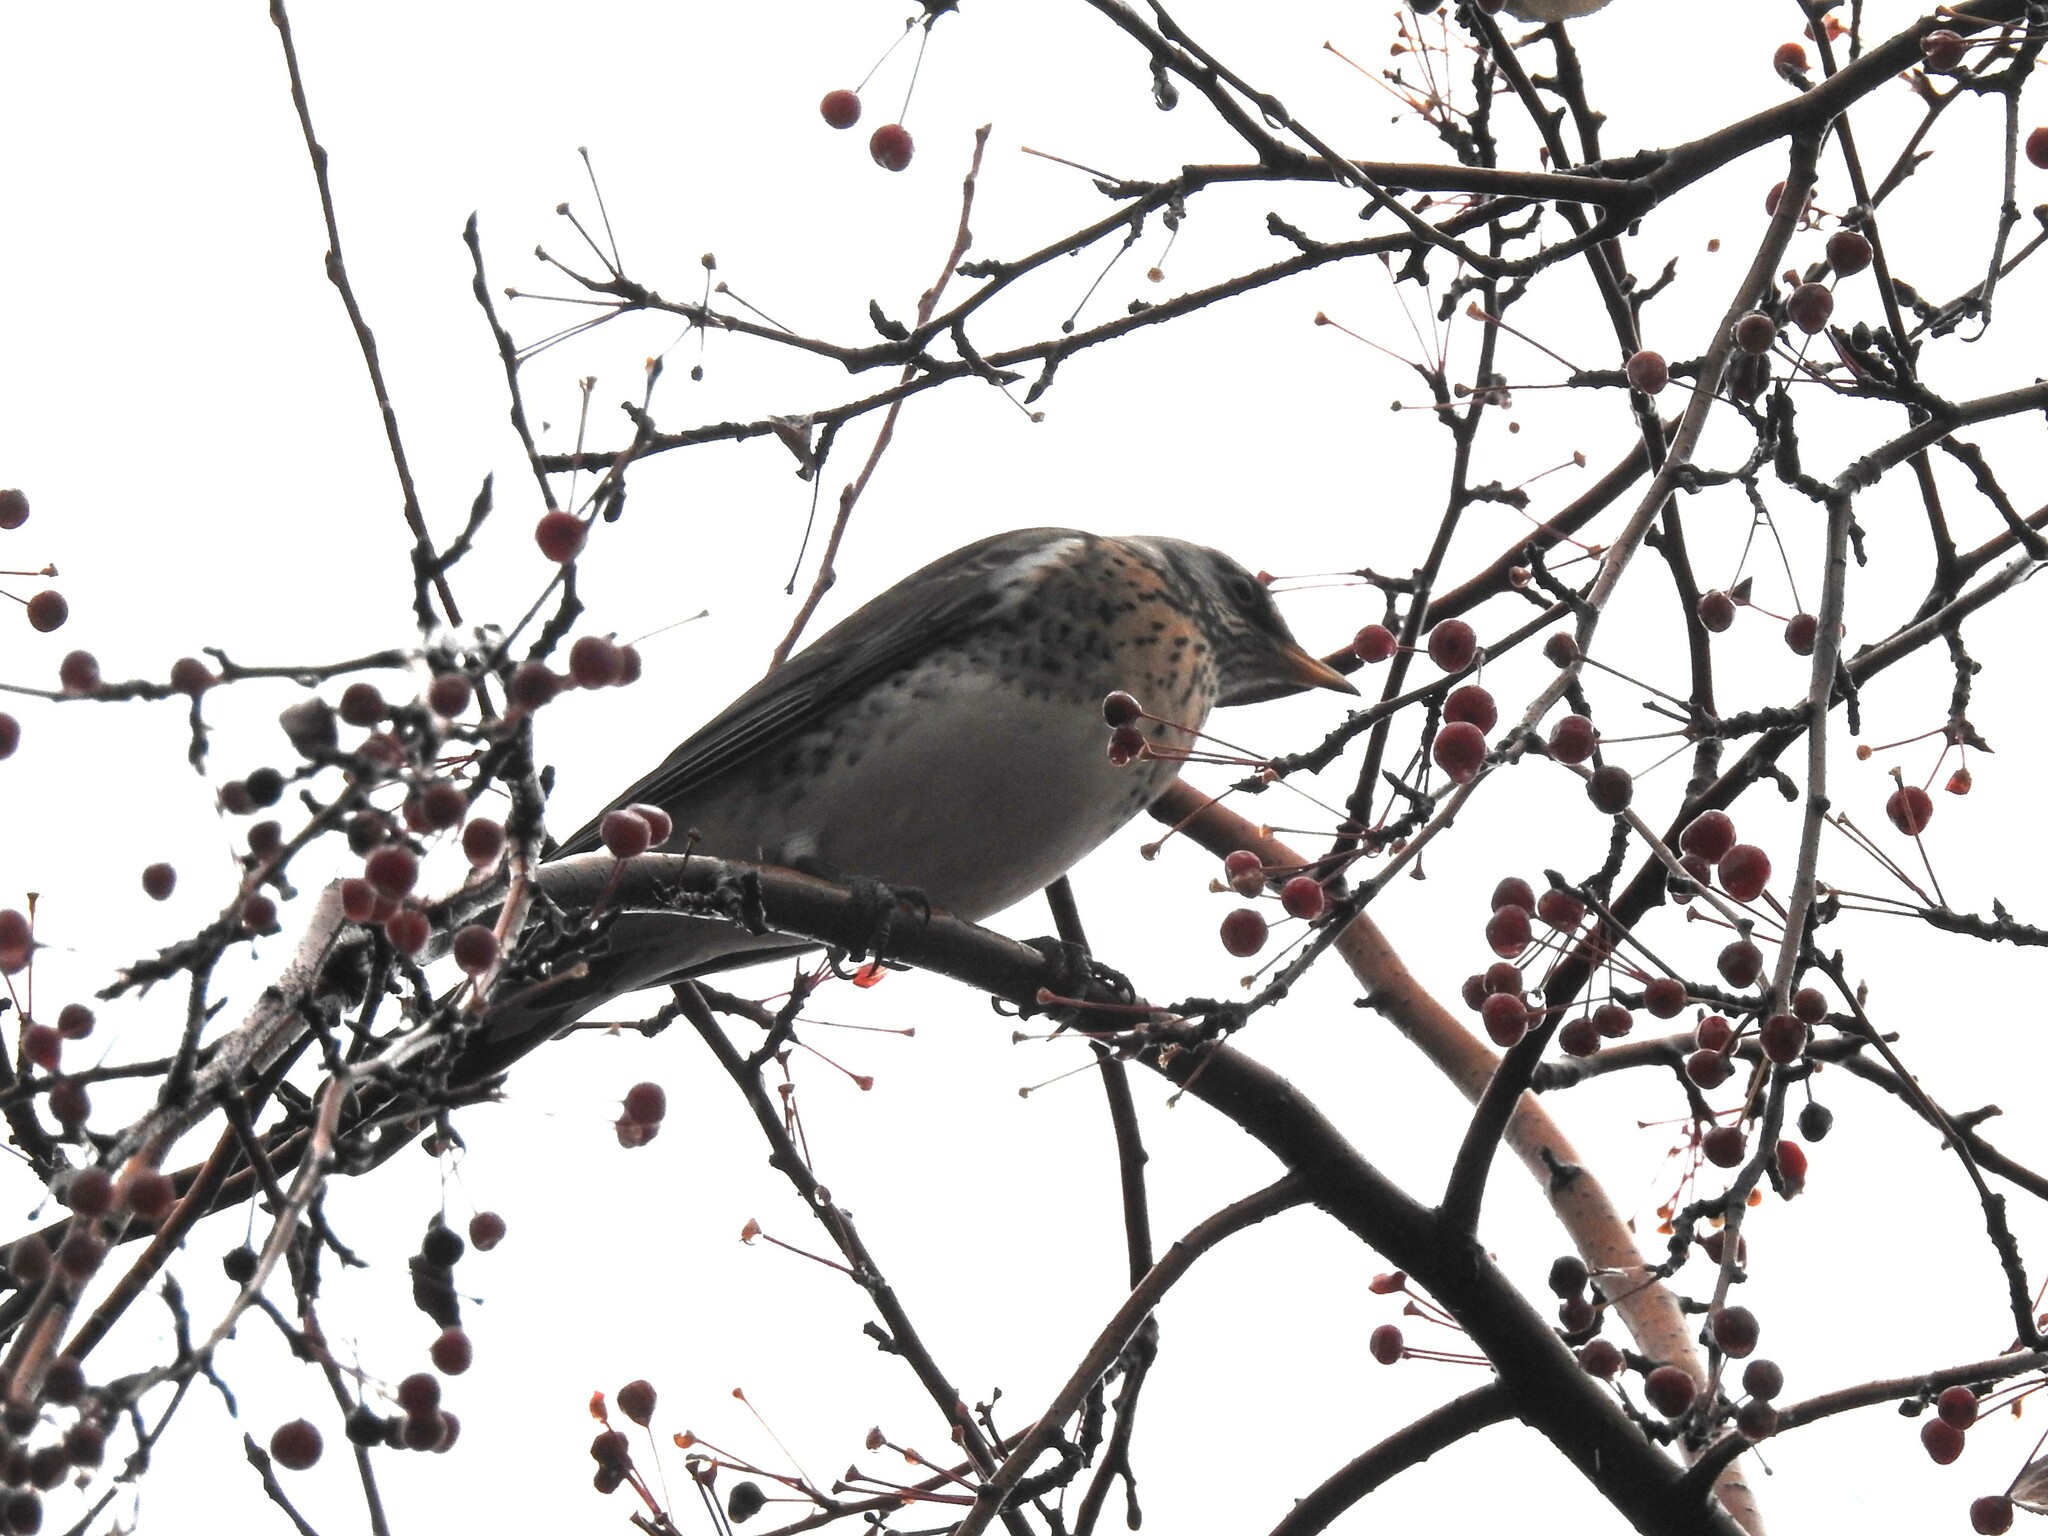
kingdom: Animalia
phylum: Chordata
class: Aves
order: Passeriformes
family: Turdidae
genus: Turdus
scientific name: Turdus pilaris
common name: Fieldfare
